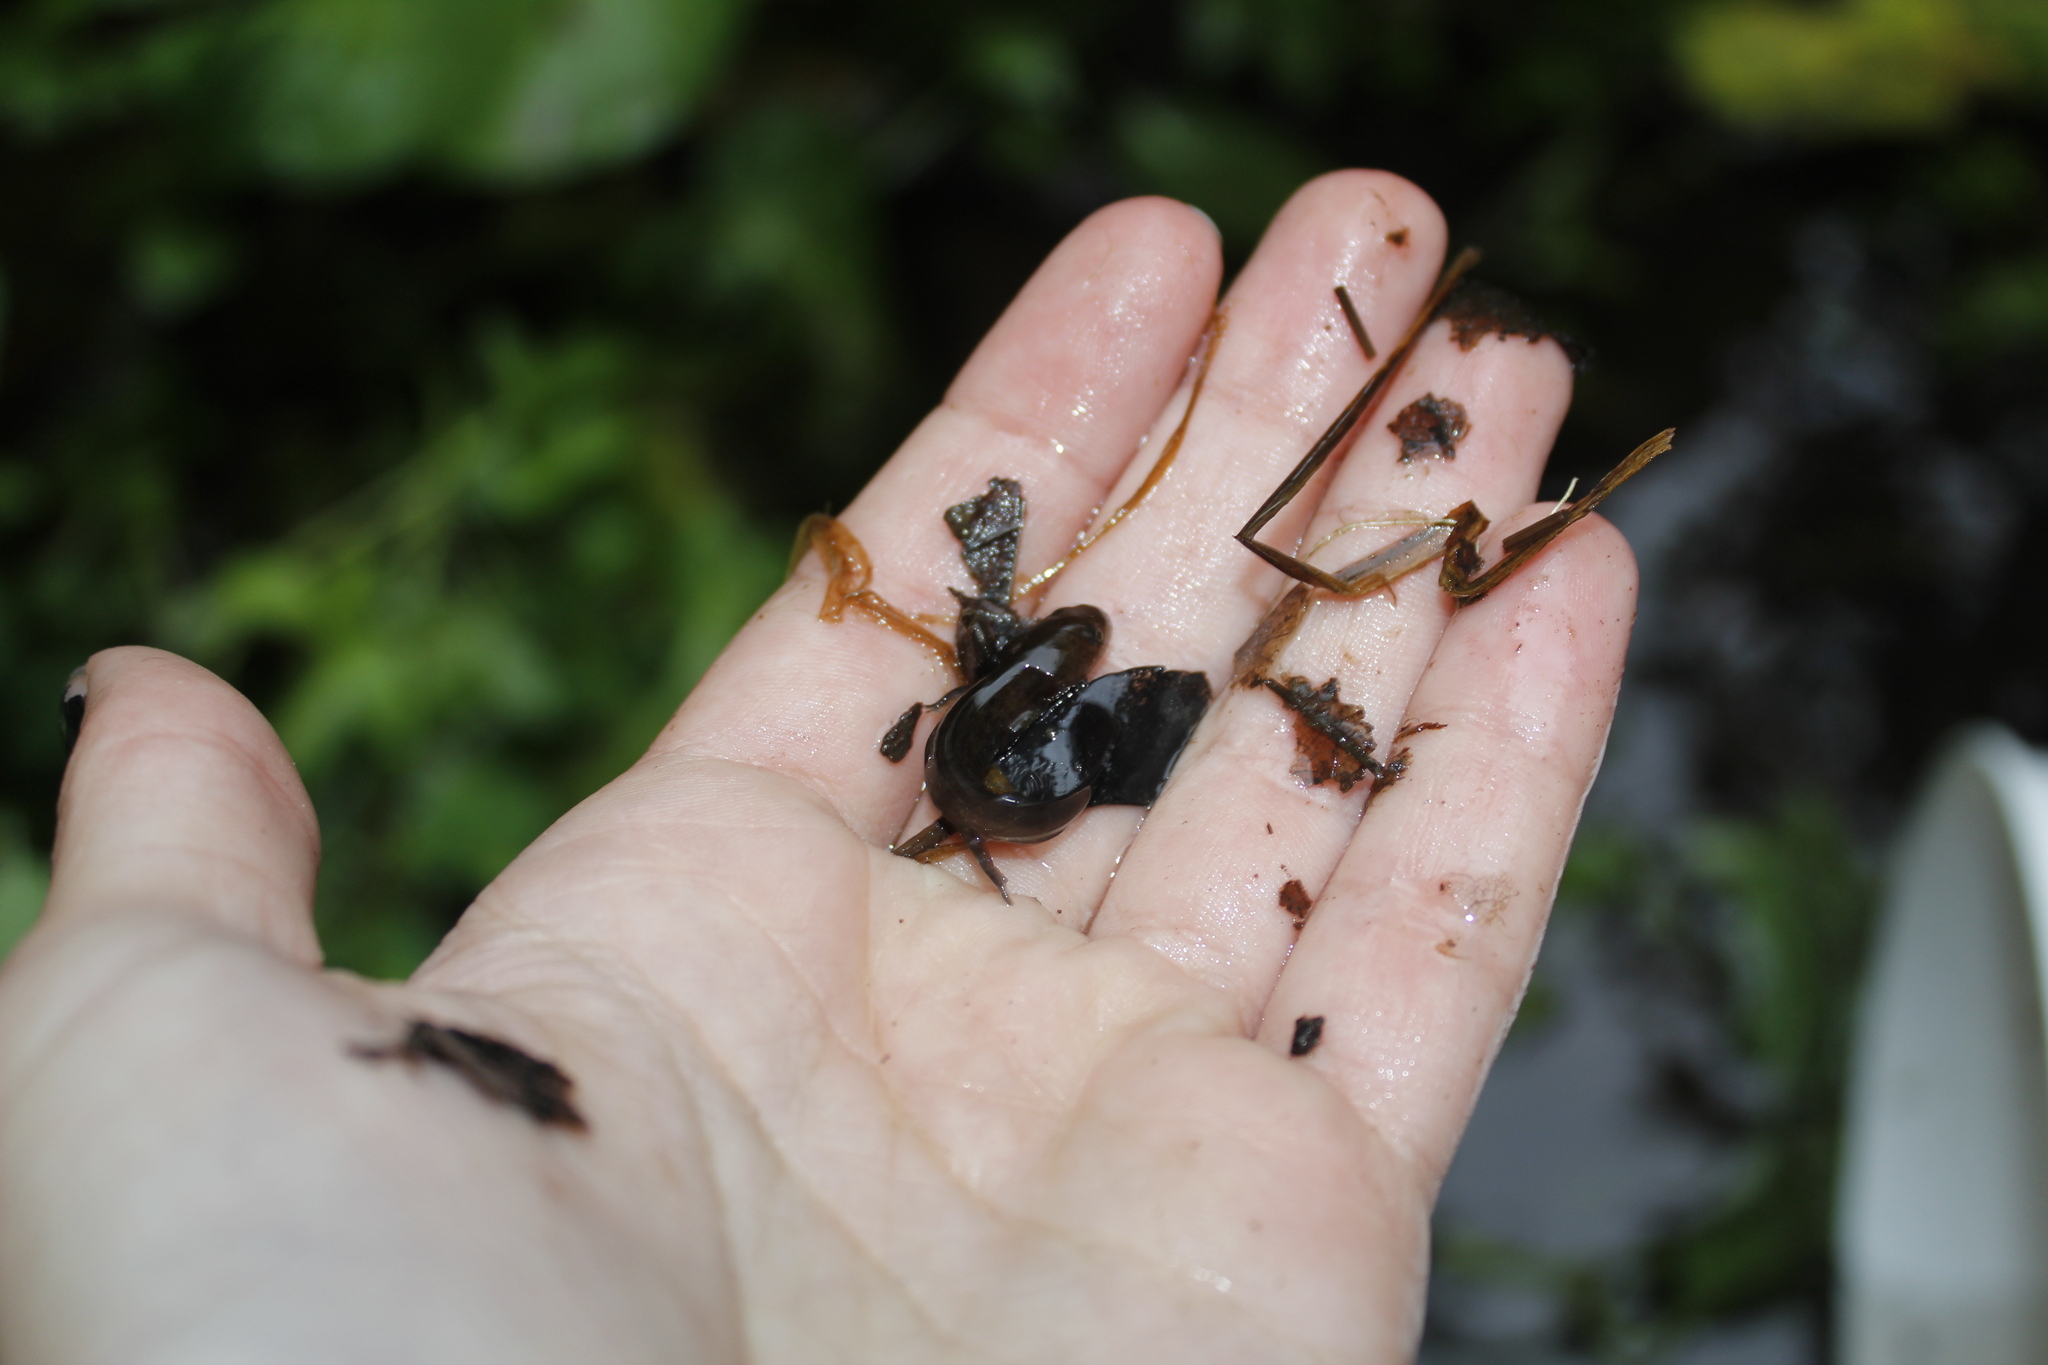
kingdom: Animalia
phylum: Chordata
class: Amphibia
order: Caudata
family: Ambystomatidae
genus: Ambystoma
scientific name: Ambystoma maculatum
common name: Spotted salamander
